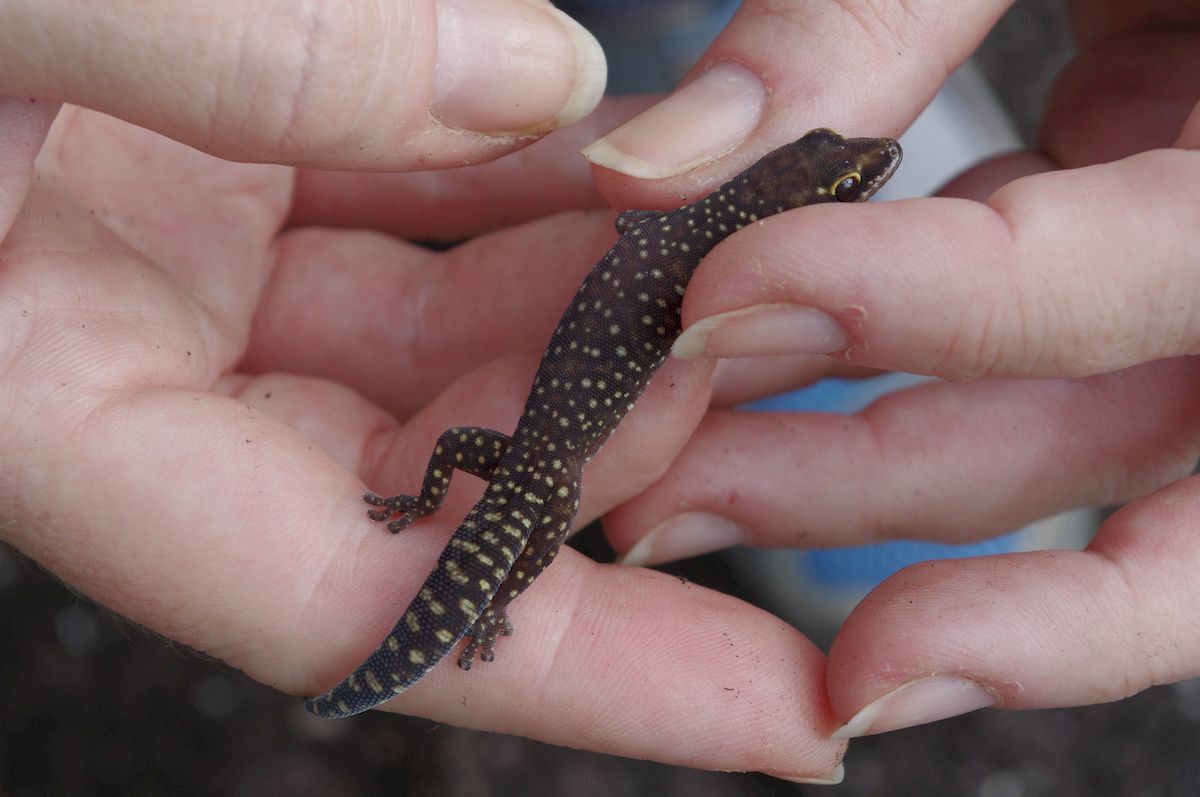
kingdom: Animalia
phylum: Chordata
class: Squamata
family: Diplodactylidae
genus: Oedura
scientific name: Oedura coggeri
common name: Northern spotted velvet gecko
